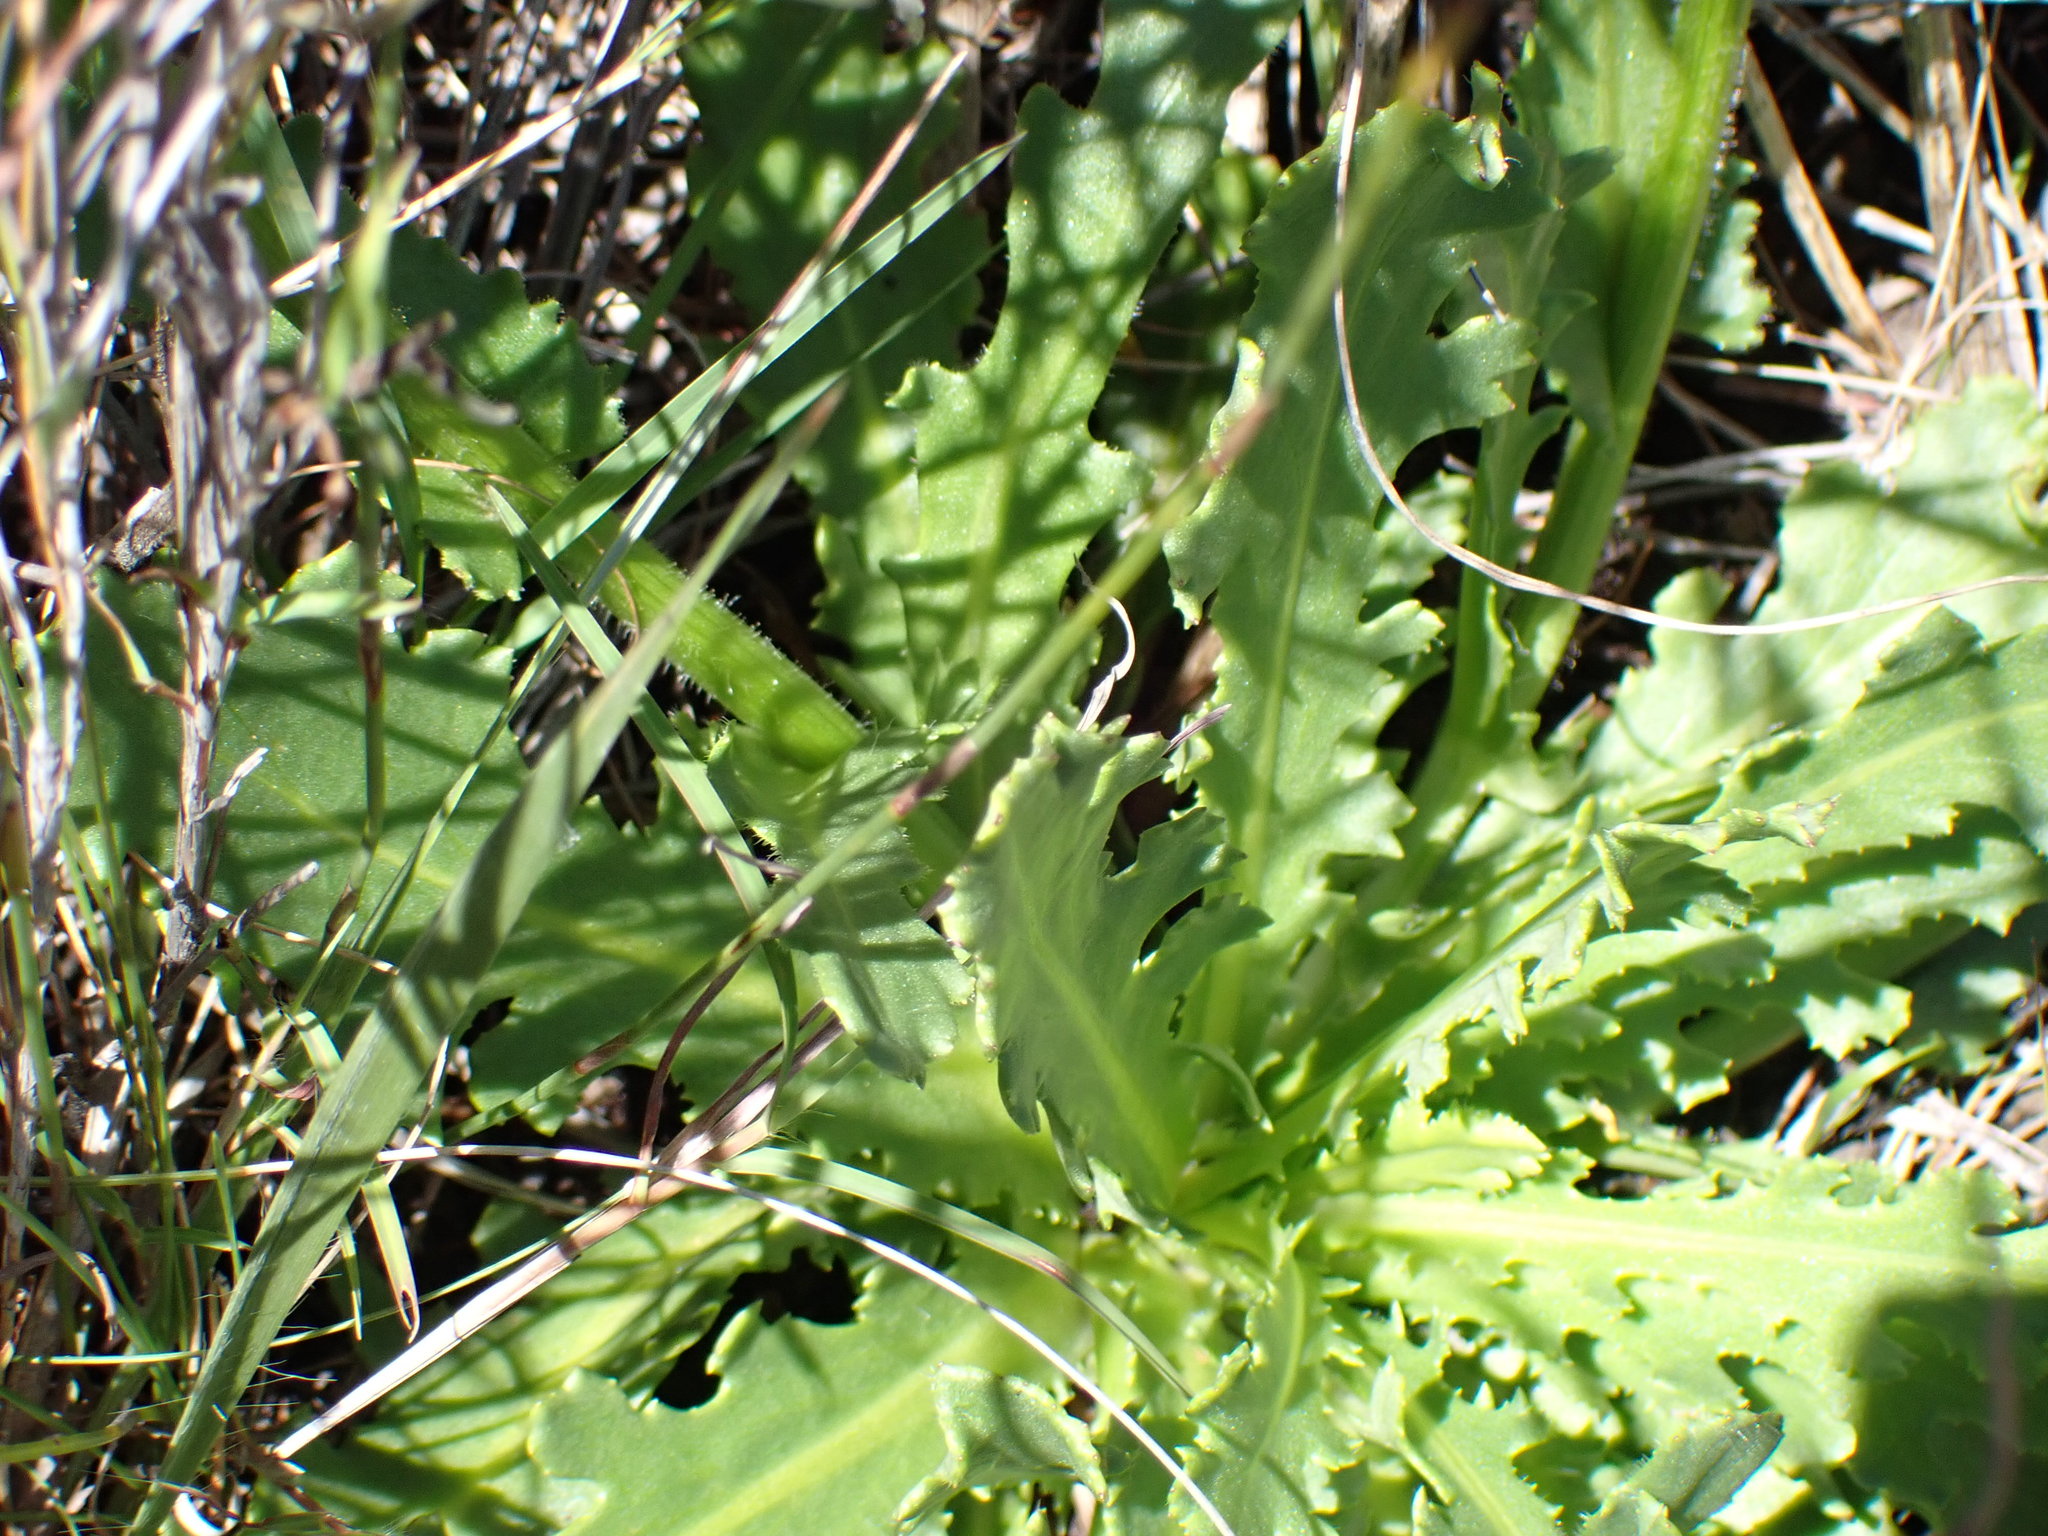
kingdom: Plantae
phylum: Tracheophyta
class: Magnoliopsida
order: Asterales
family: Asteraceae
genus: Senecio
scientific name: Senecio macrocephalus
